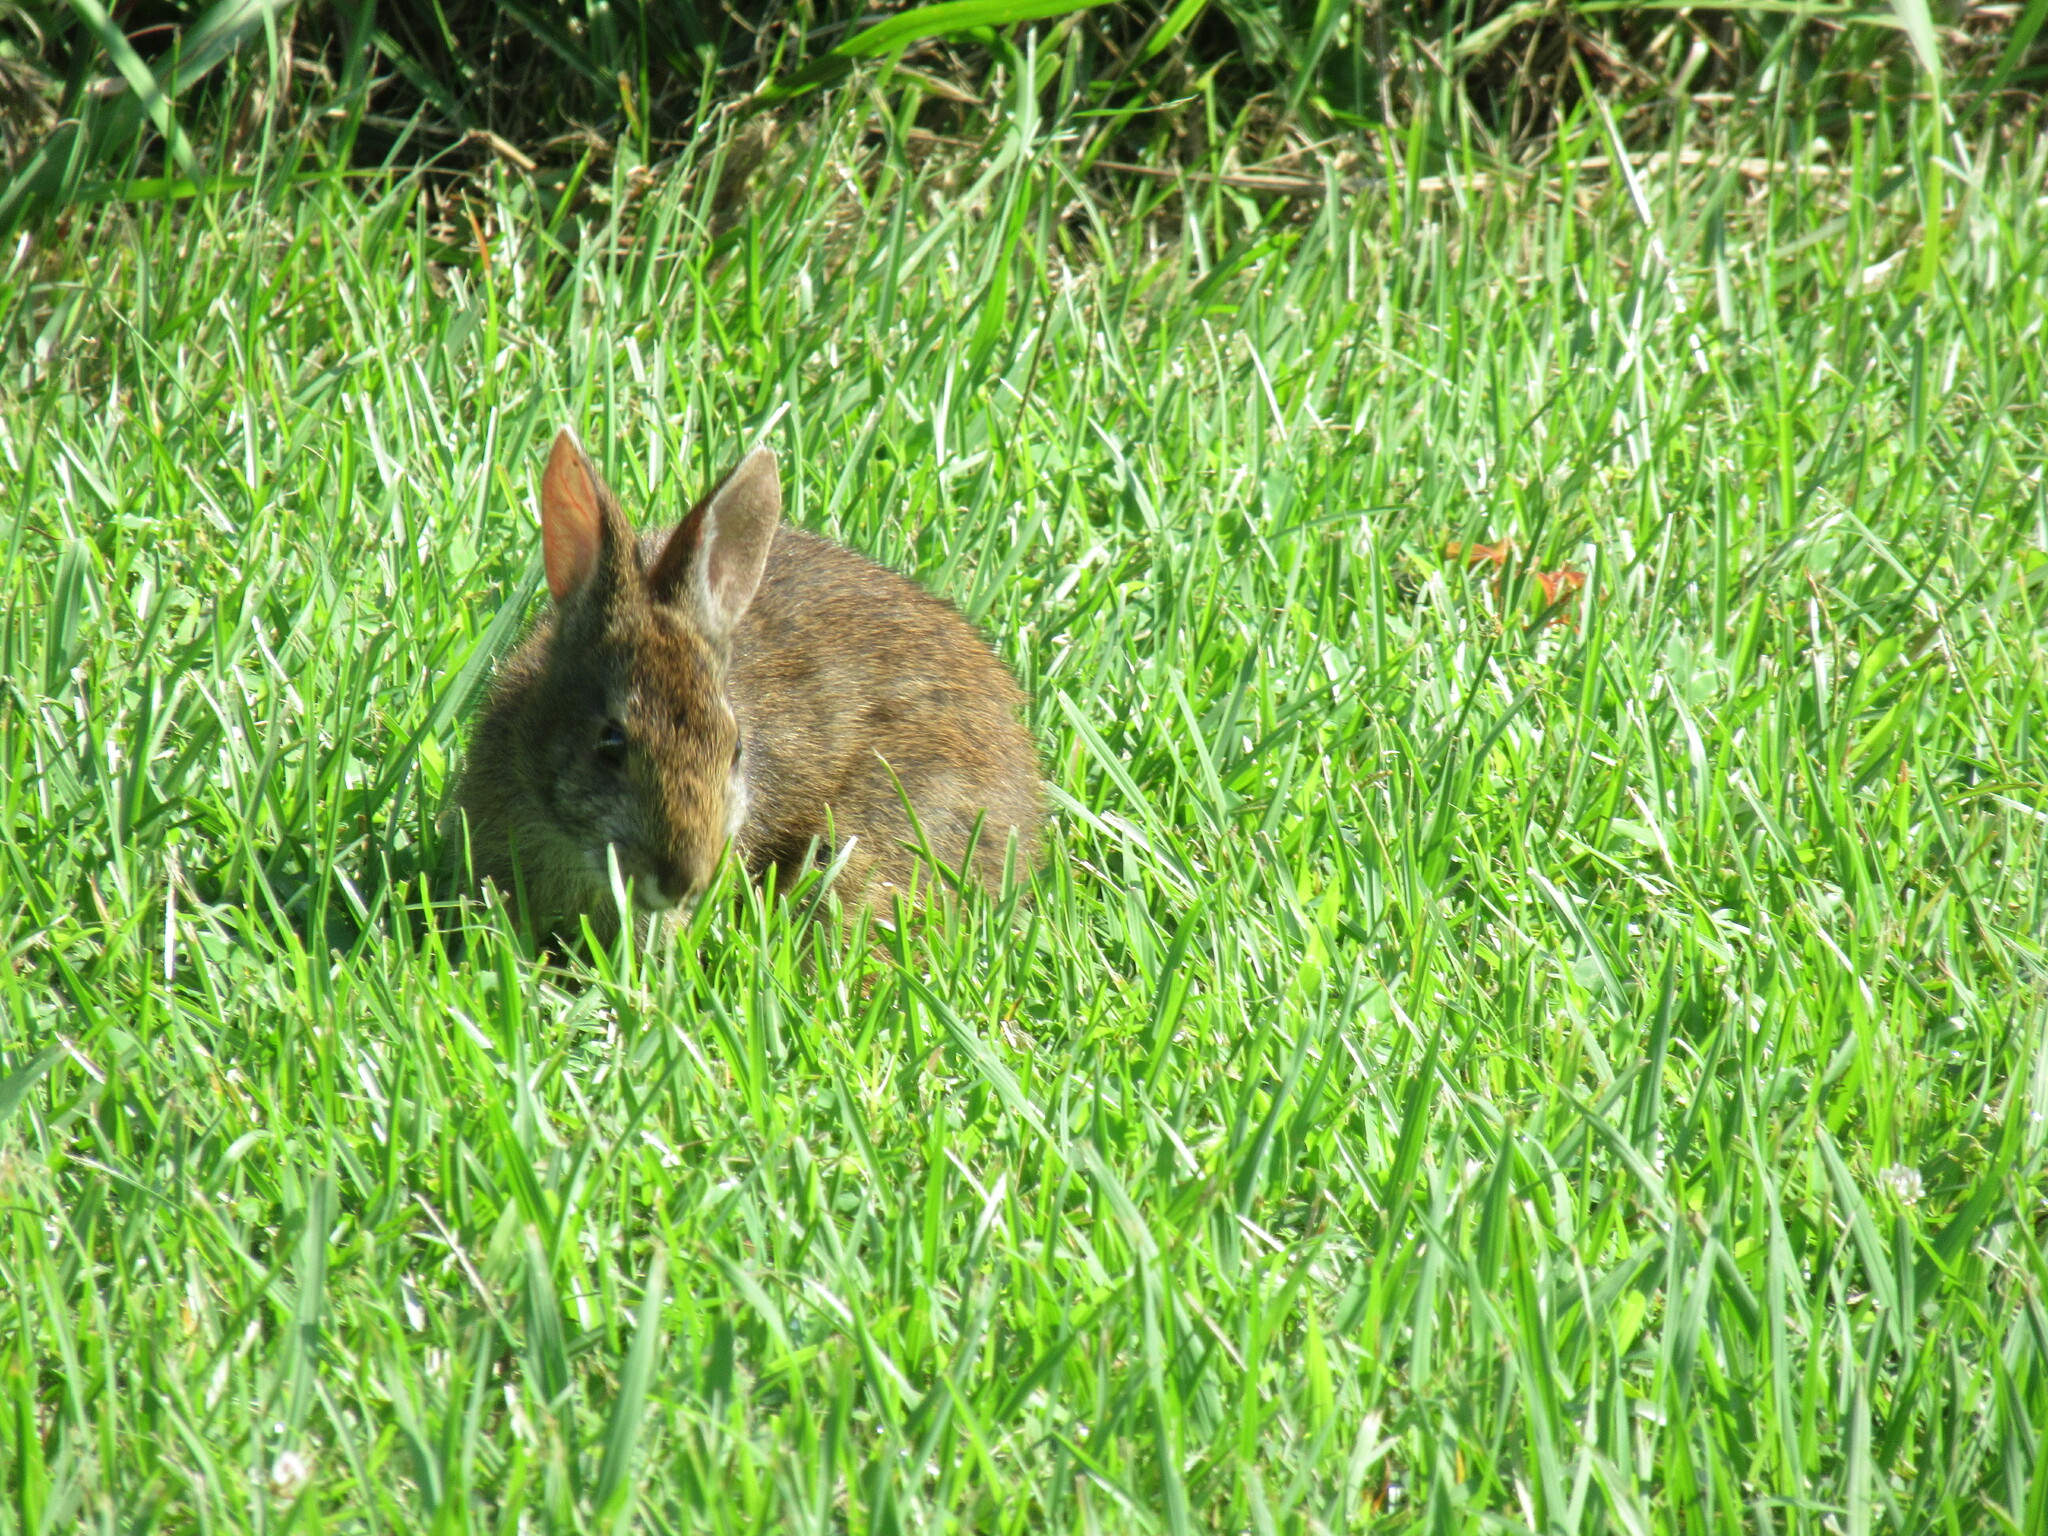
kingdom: Animalia
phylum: Chordata
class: Mammalia
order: Lagomorpha
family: Leporidae
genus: Sylvilagus
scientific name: Sylvilagus palustris
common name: Marsh rabbit
